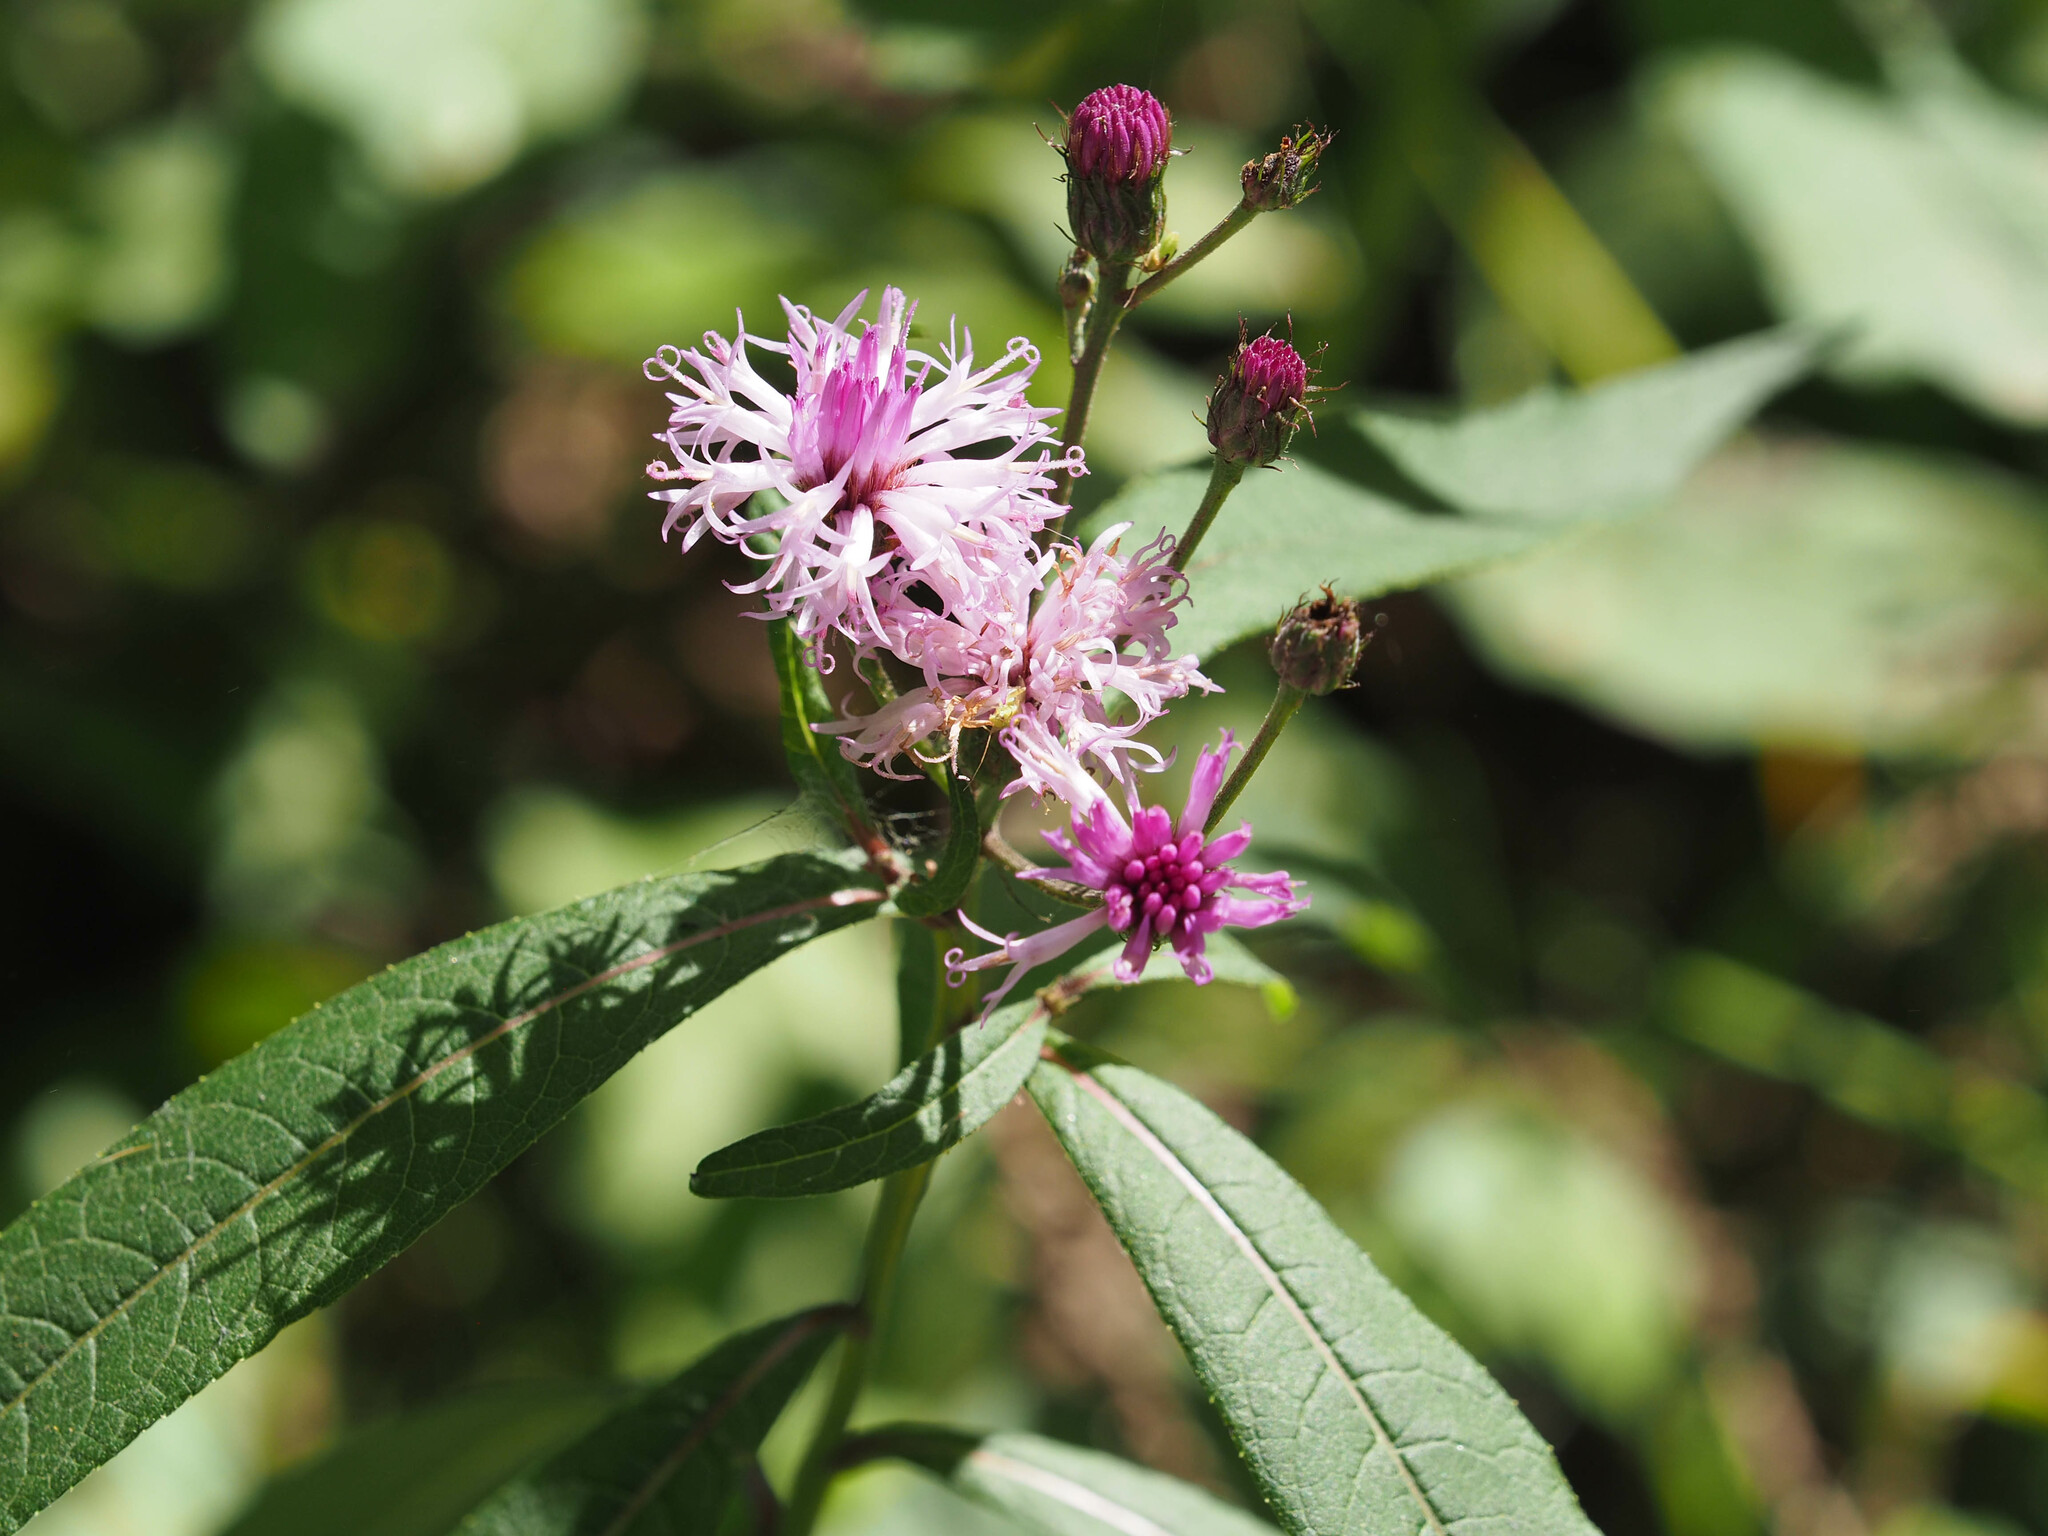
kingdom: Plantae
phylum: Tracheophyta
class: Magnoliopsida
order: Asterales
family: Asteraceae
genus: Vernonia
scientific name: Vernonia noveboracensis
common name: New york ironweed
